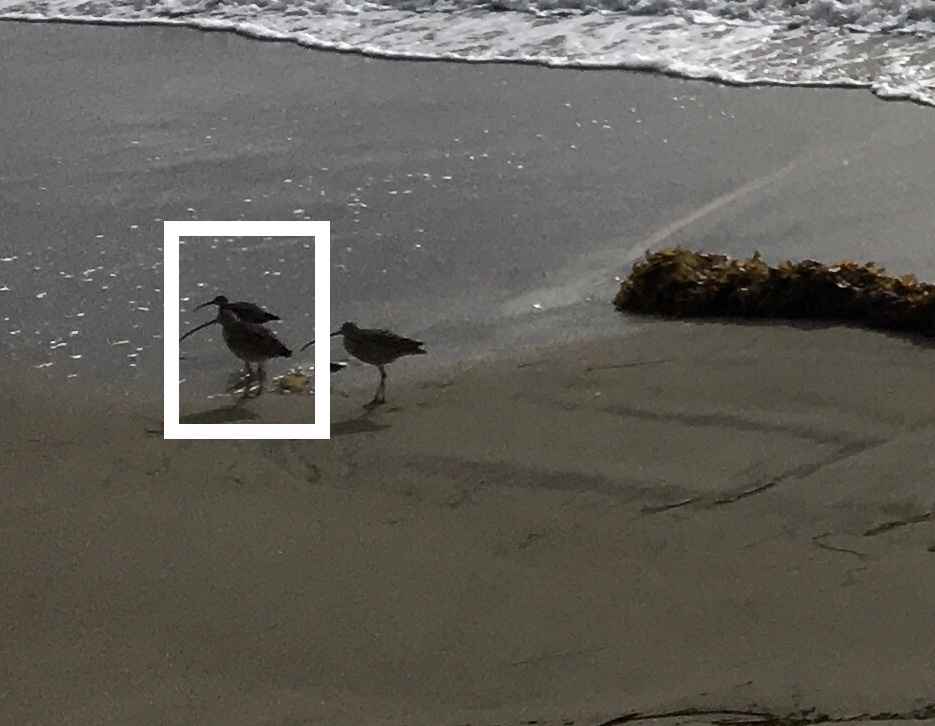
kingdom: Animalia
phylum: Chordata
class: Aves
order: Charadriiformes
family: Scolopacidae
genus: Numenius
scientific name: Numenius phaeopus
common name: Whimbrel
